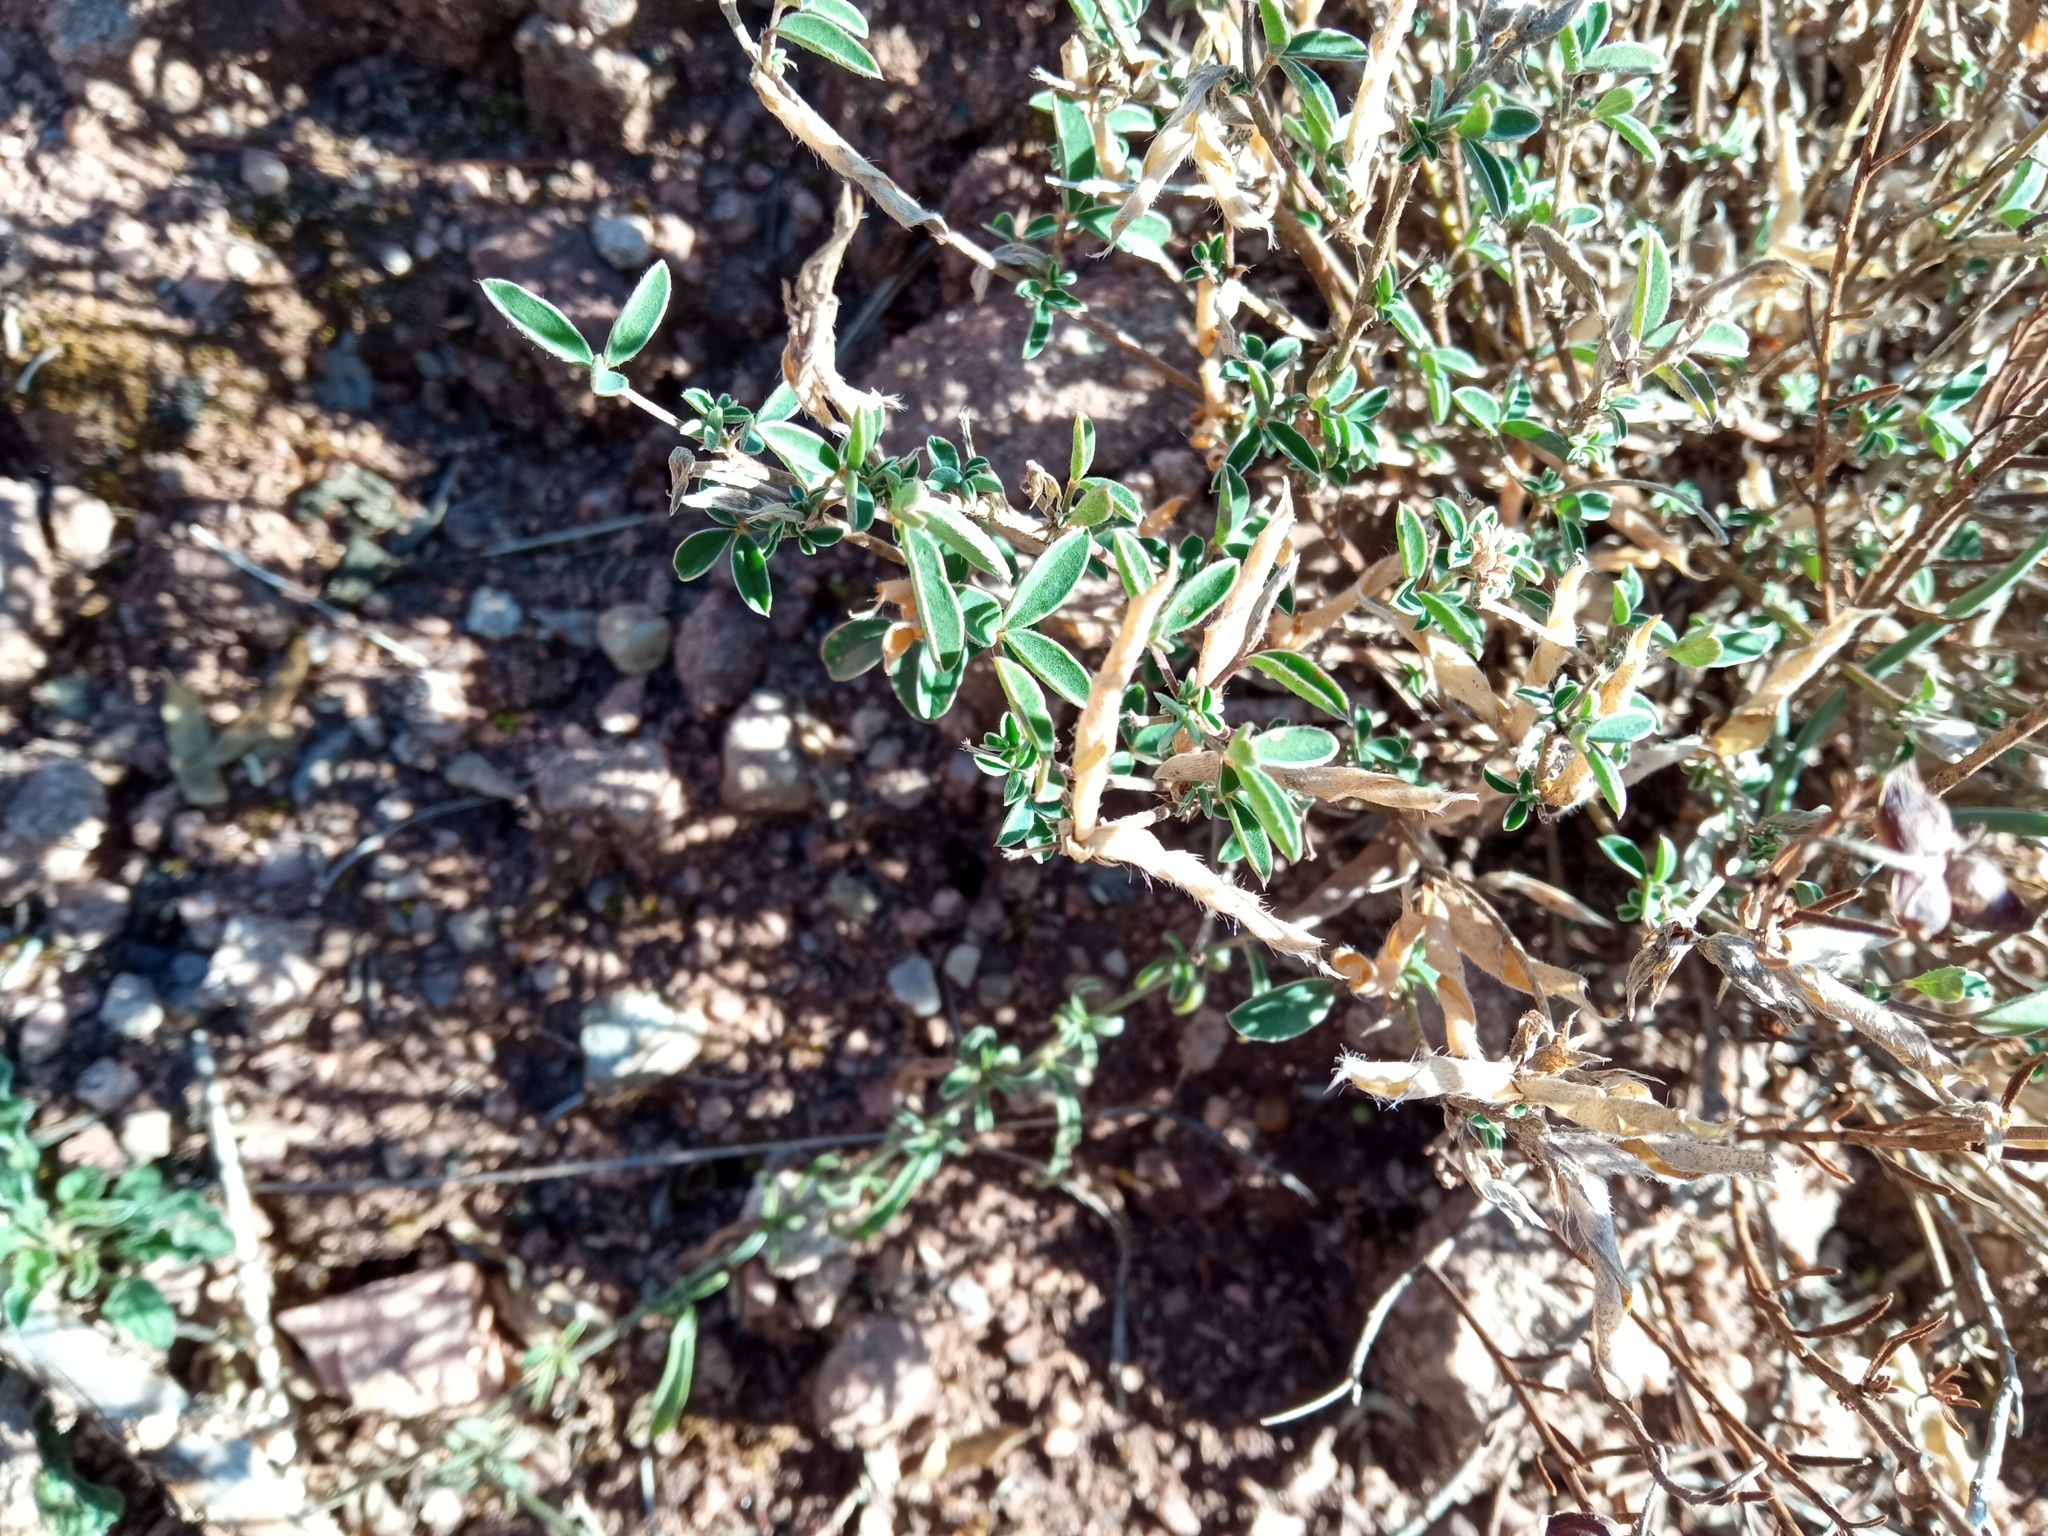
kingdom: Plantae
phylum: Tracheophyta
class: Magnoliopsida
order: Fabales
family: Fabaceae
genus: Argyrolobium
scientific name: Argyrolobium zanonii
